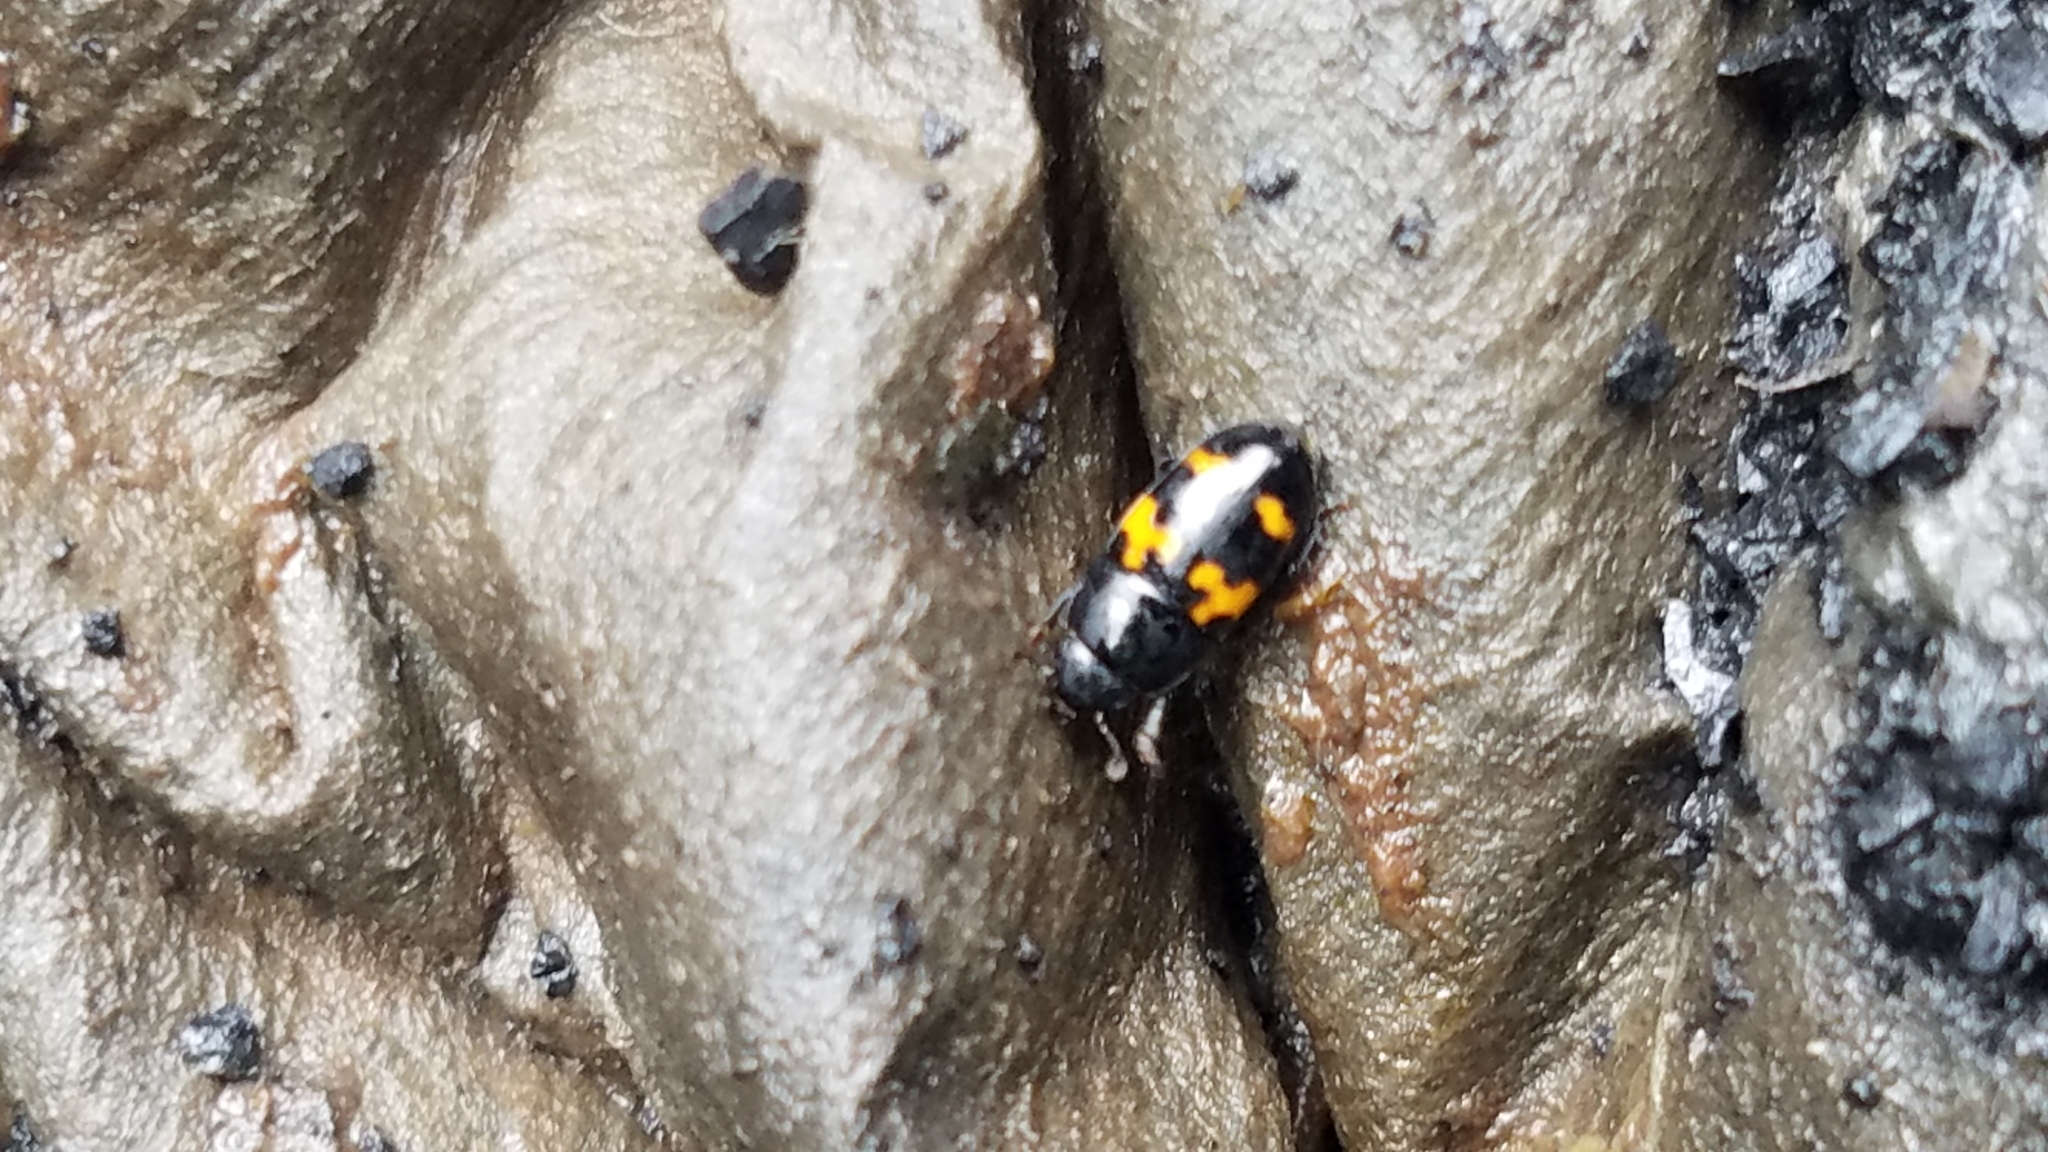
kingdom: Animalia
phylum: Arthropoda
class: Insecta
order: Coleoptera
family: Nitidulidae
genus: Glischrochilus
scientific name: Glischrochilus fasciatus
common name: Picnic beetle
